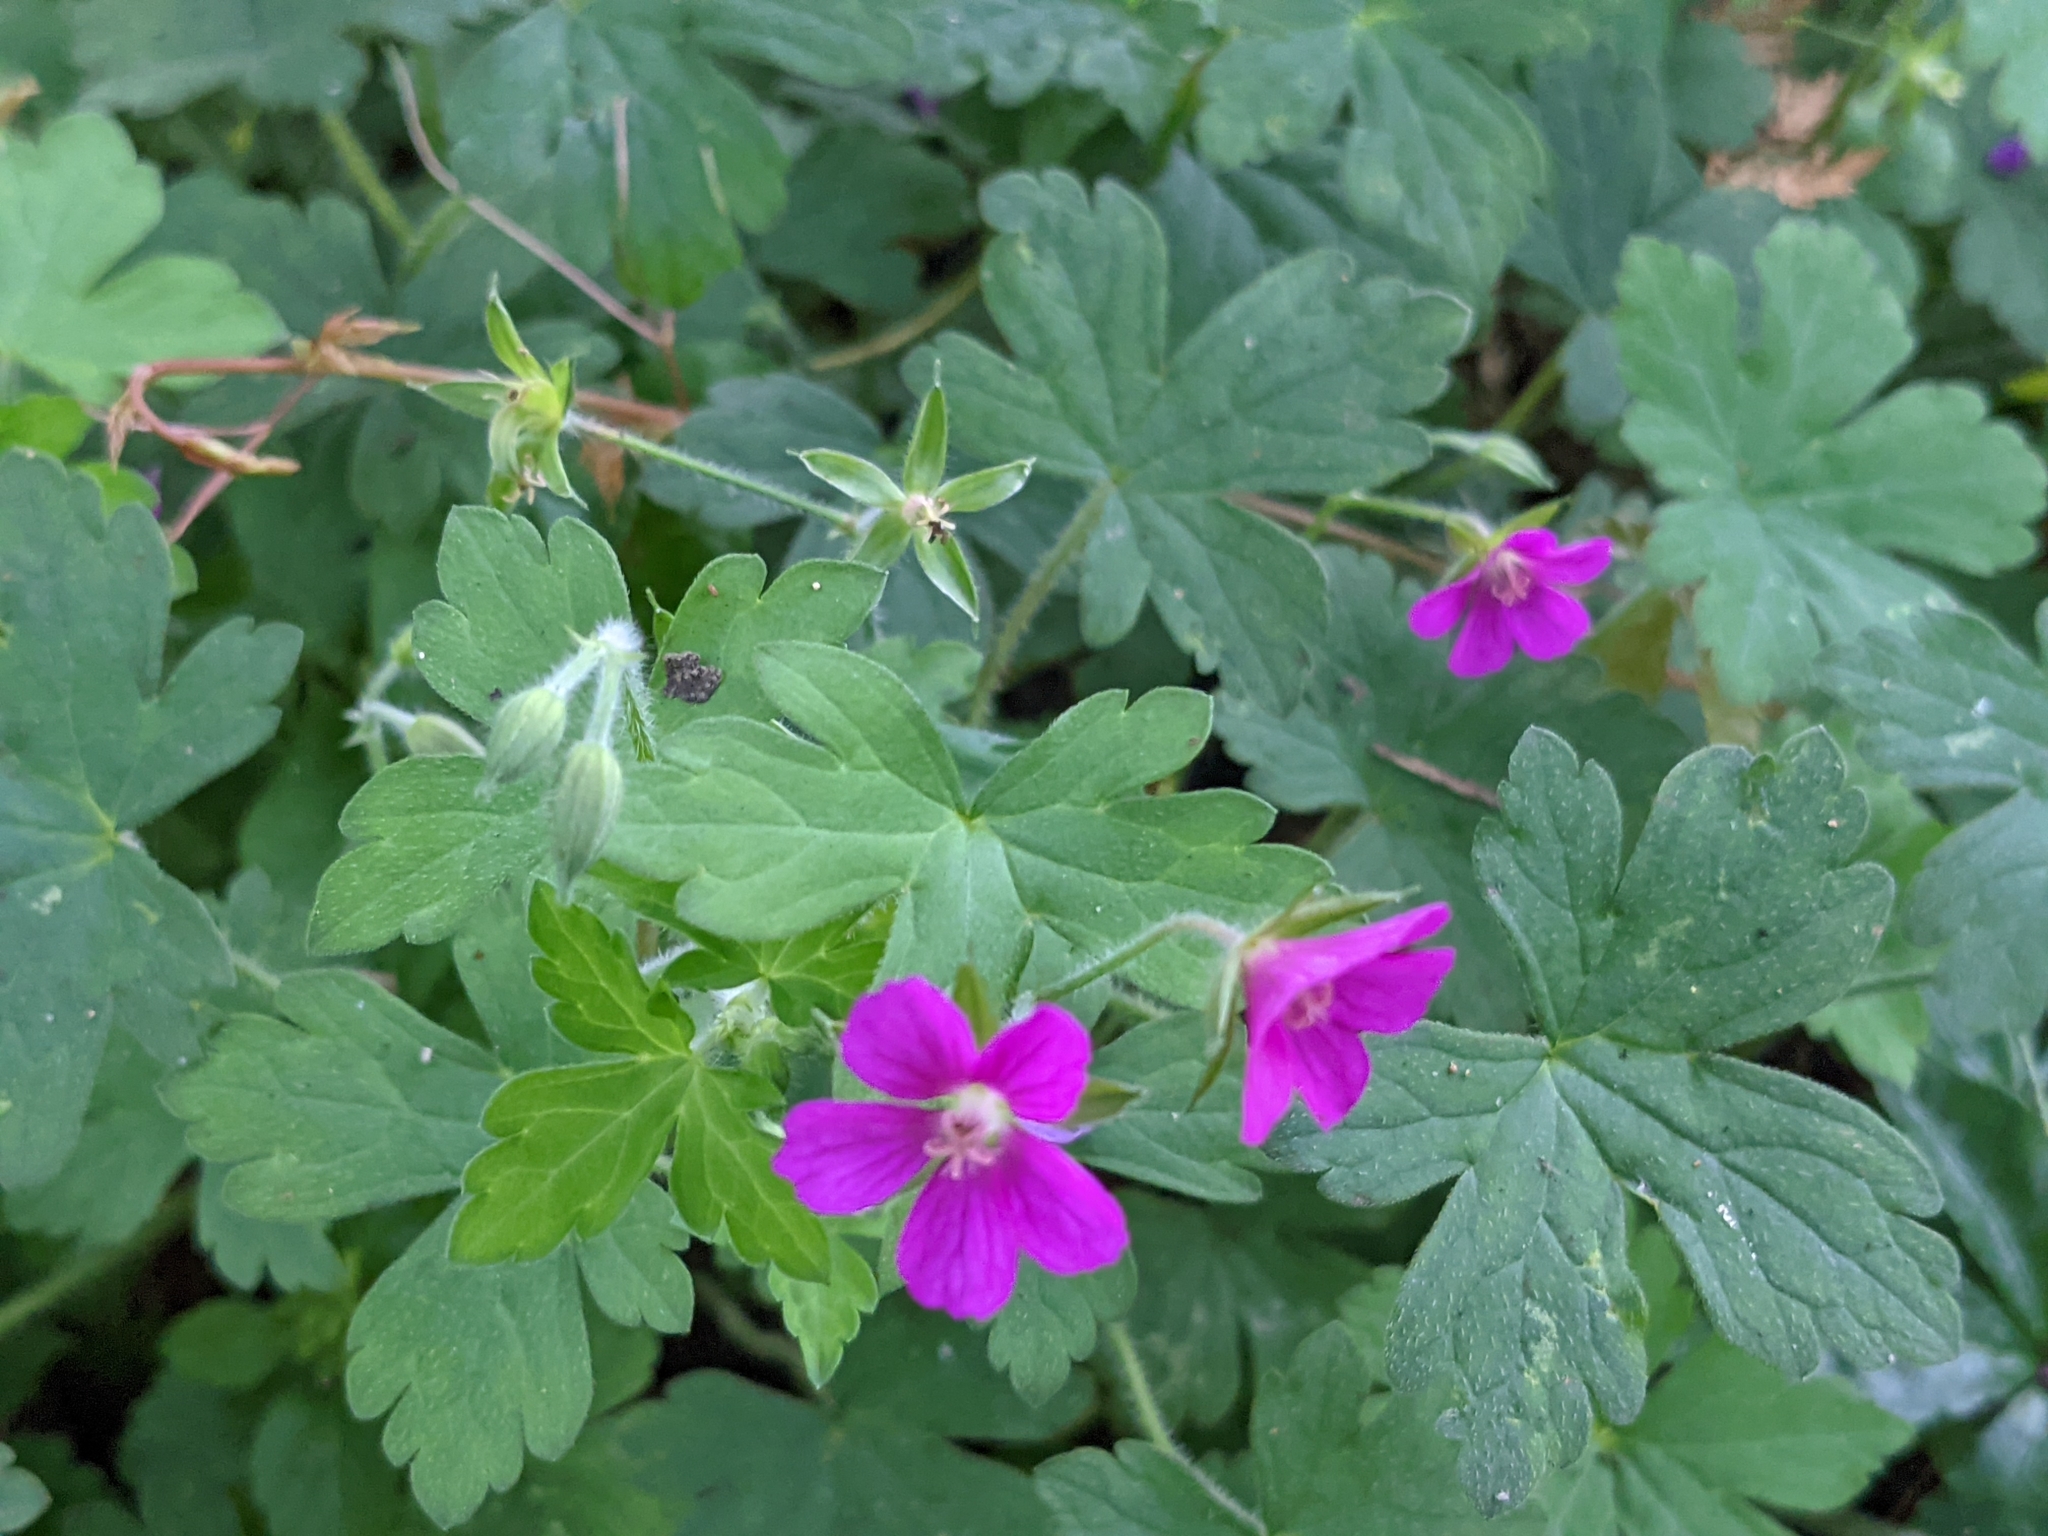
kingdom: Plantae
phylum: Tracheophyta
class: Magnoliopsida
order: Geraniales
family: Geraniaceae
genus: Geranium
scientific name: Geranium thunbergii
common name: Dewdrop crane's-bill
